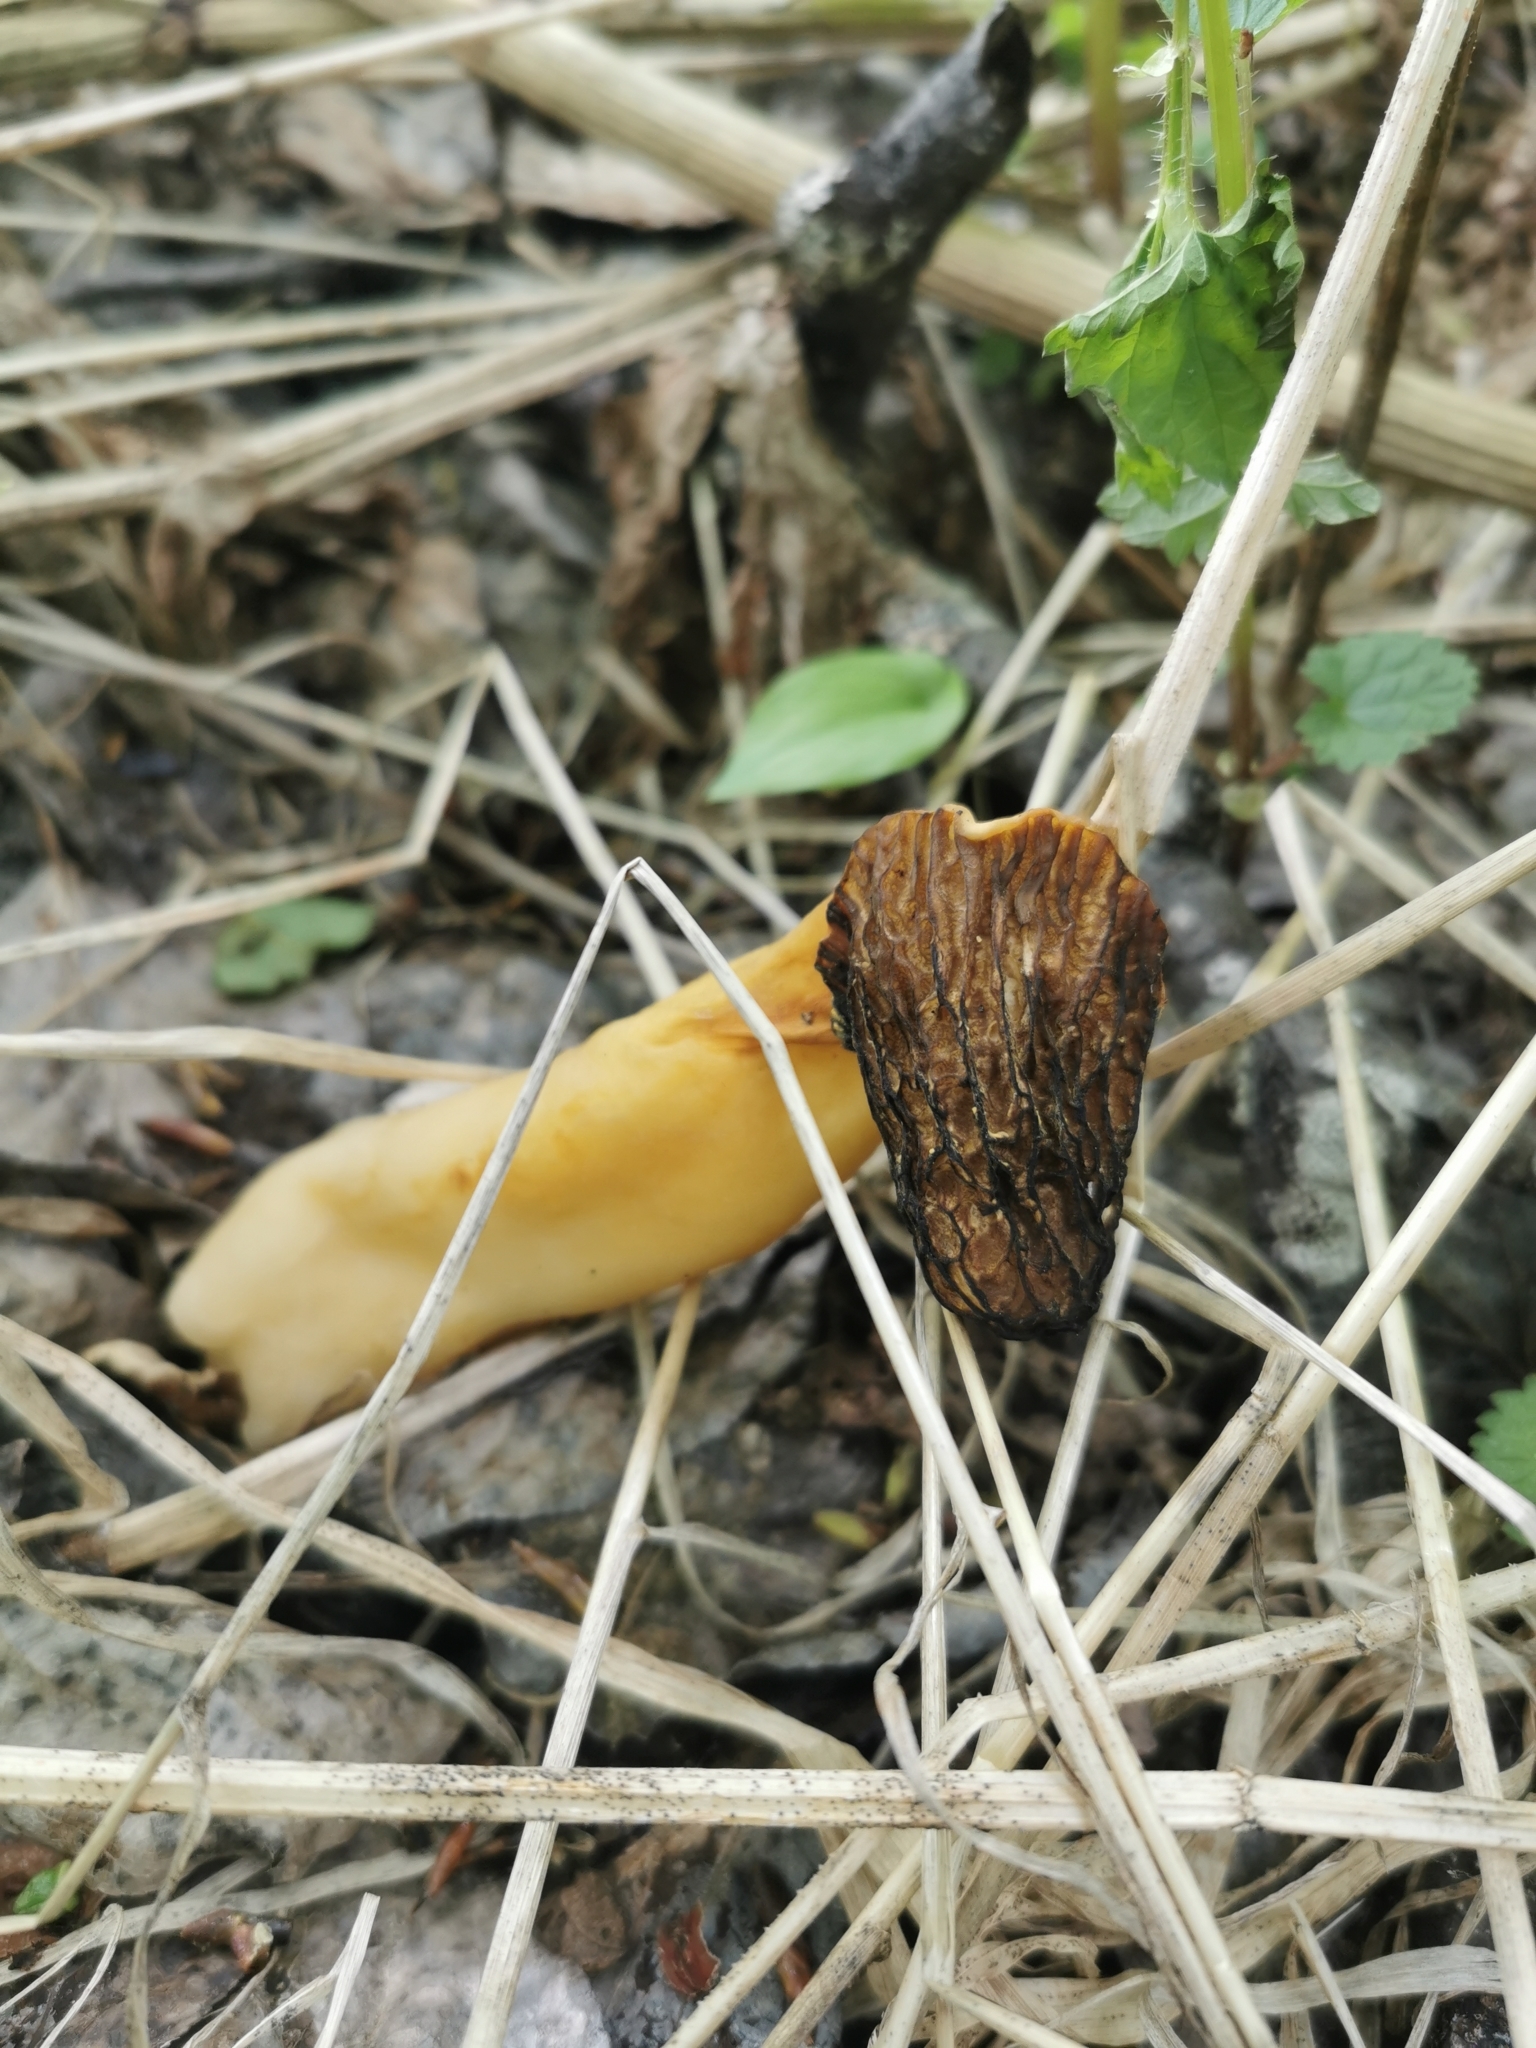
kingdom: Fungi
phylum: Ascomycota
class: Pezizomycetes
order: Pezizales
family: Morchellaceae
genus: Verpa
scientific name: Verpa bohemica
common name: Wrinkled thimble morel
